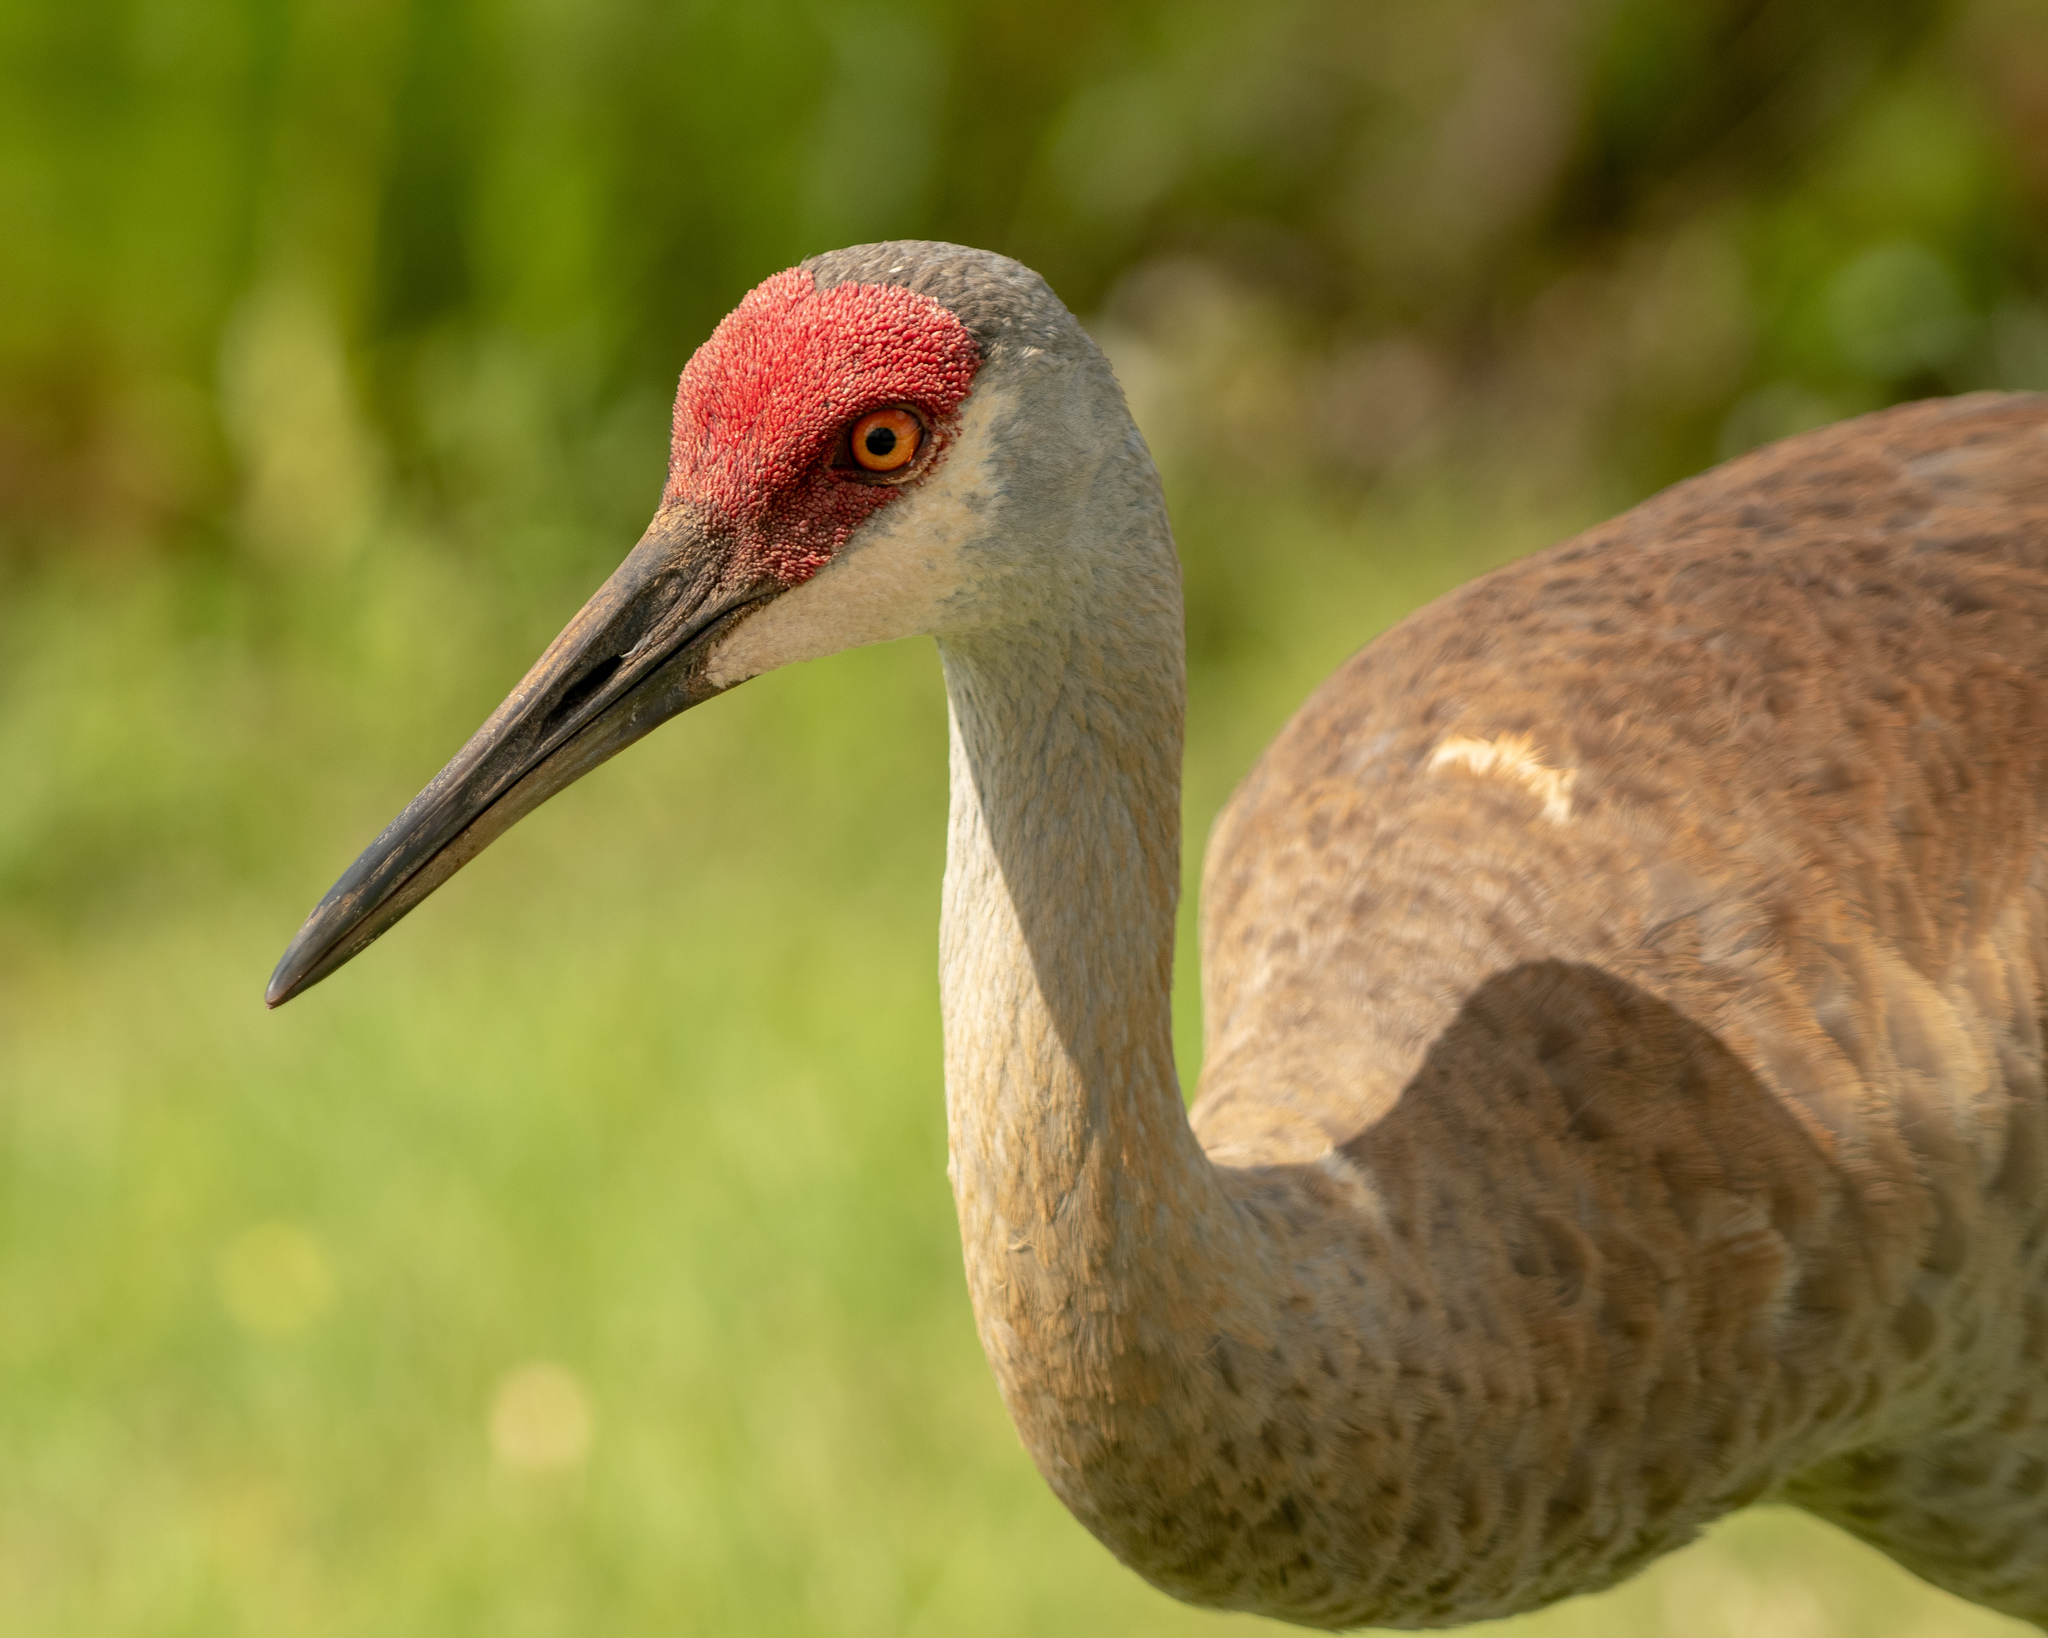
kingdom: Animalia
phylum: Chordata
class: Aves
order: Gruiformes
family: Gruidae
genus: Grus
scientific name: Grus canadensis
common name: Sandhill crane
